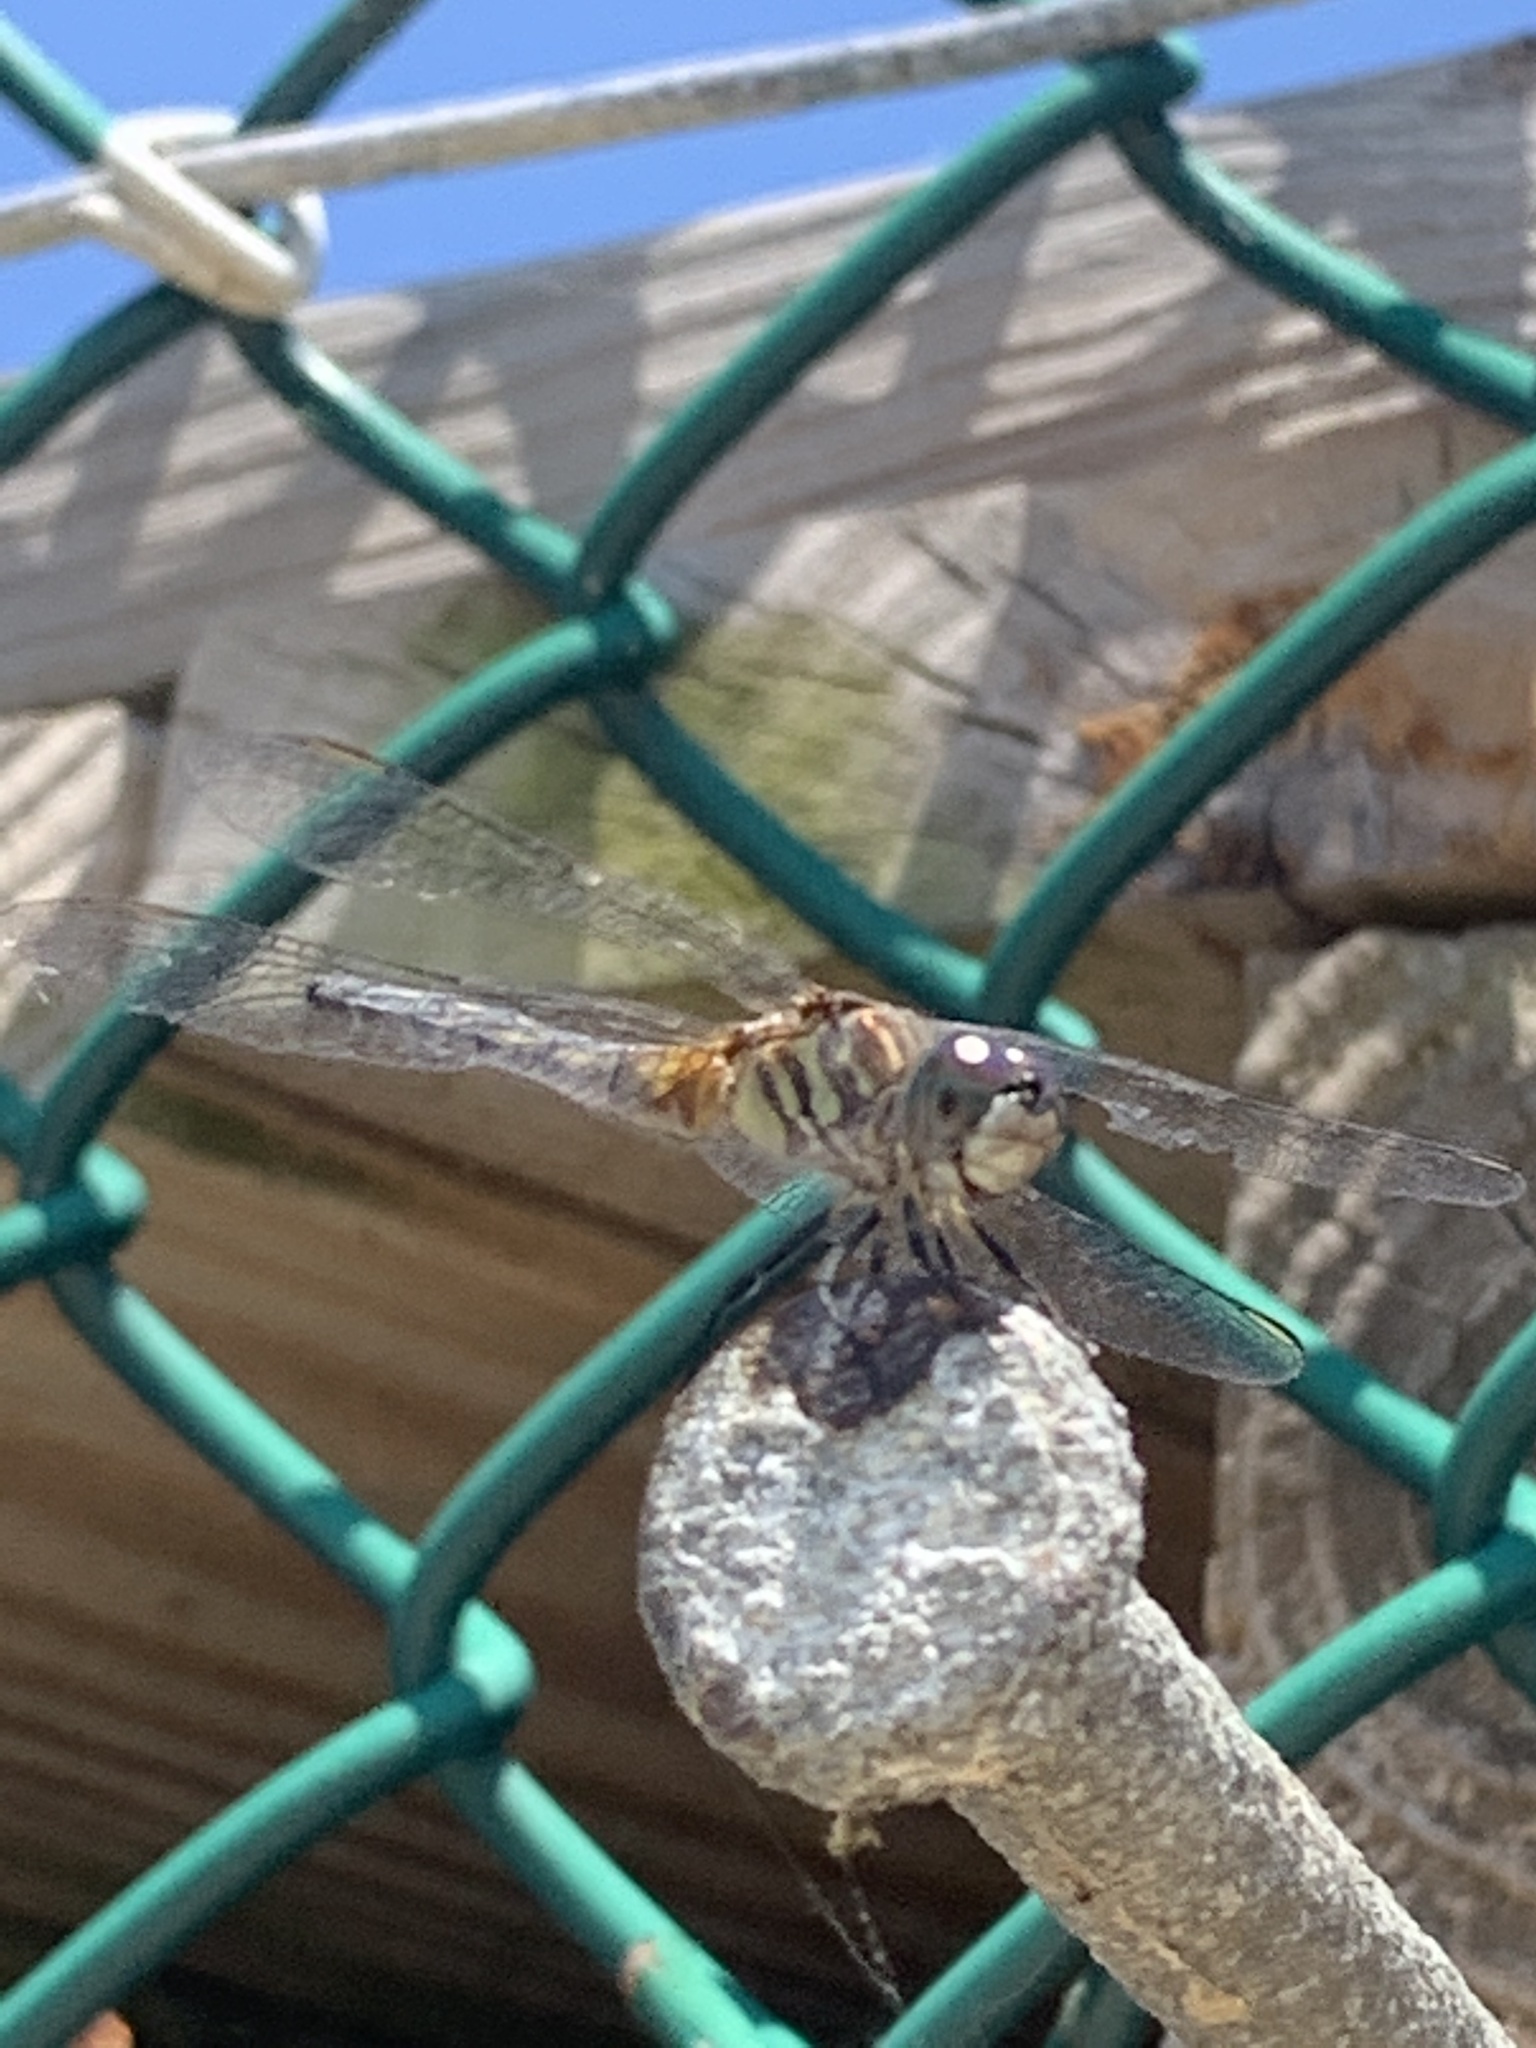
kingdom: Animalia
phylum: Arthropoda
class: Insecta
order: Odonata
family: Libellulidae
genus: Pachydiplax
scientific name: Pachydiplax longipennis
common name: Blue dasher
